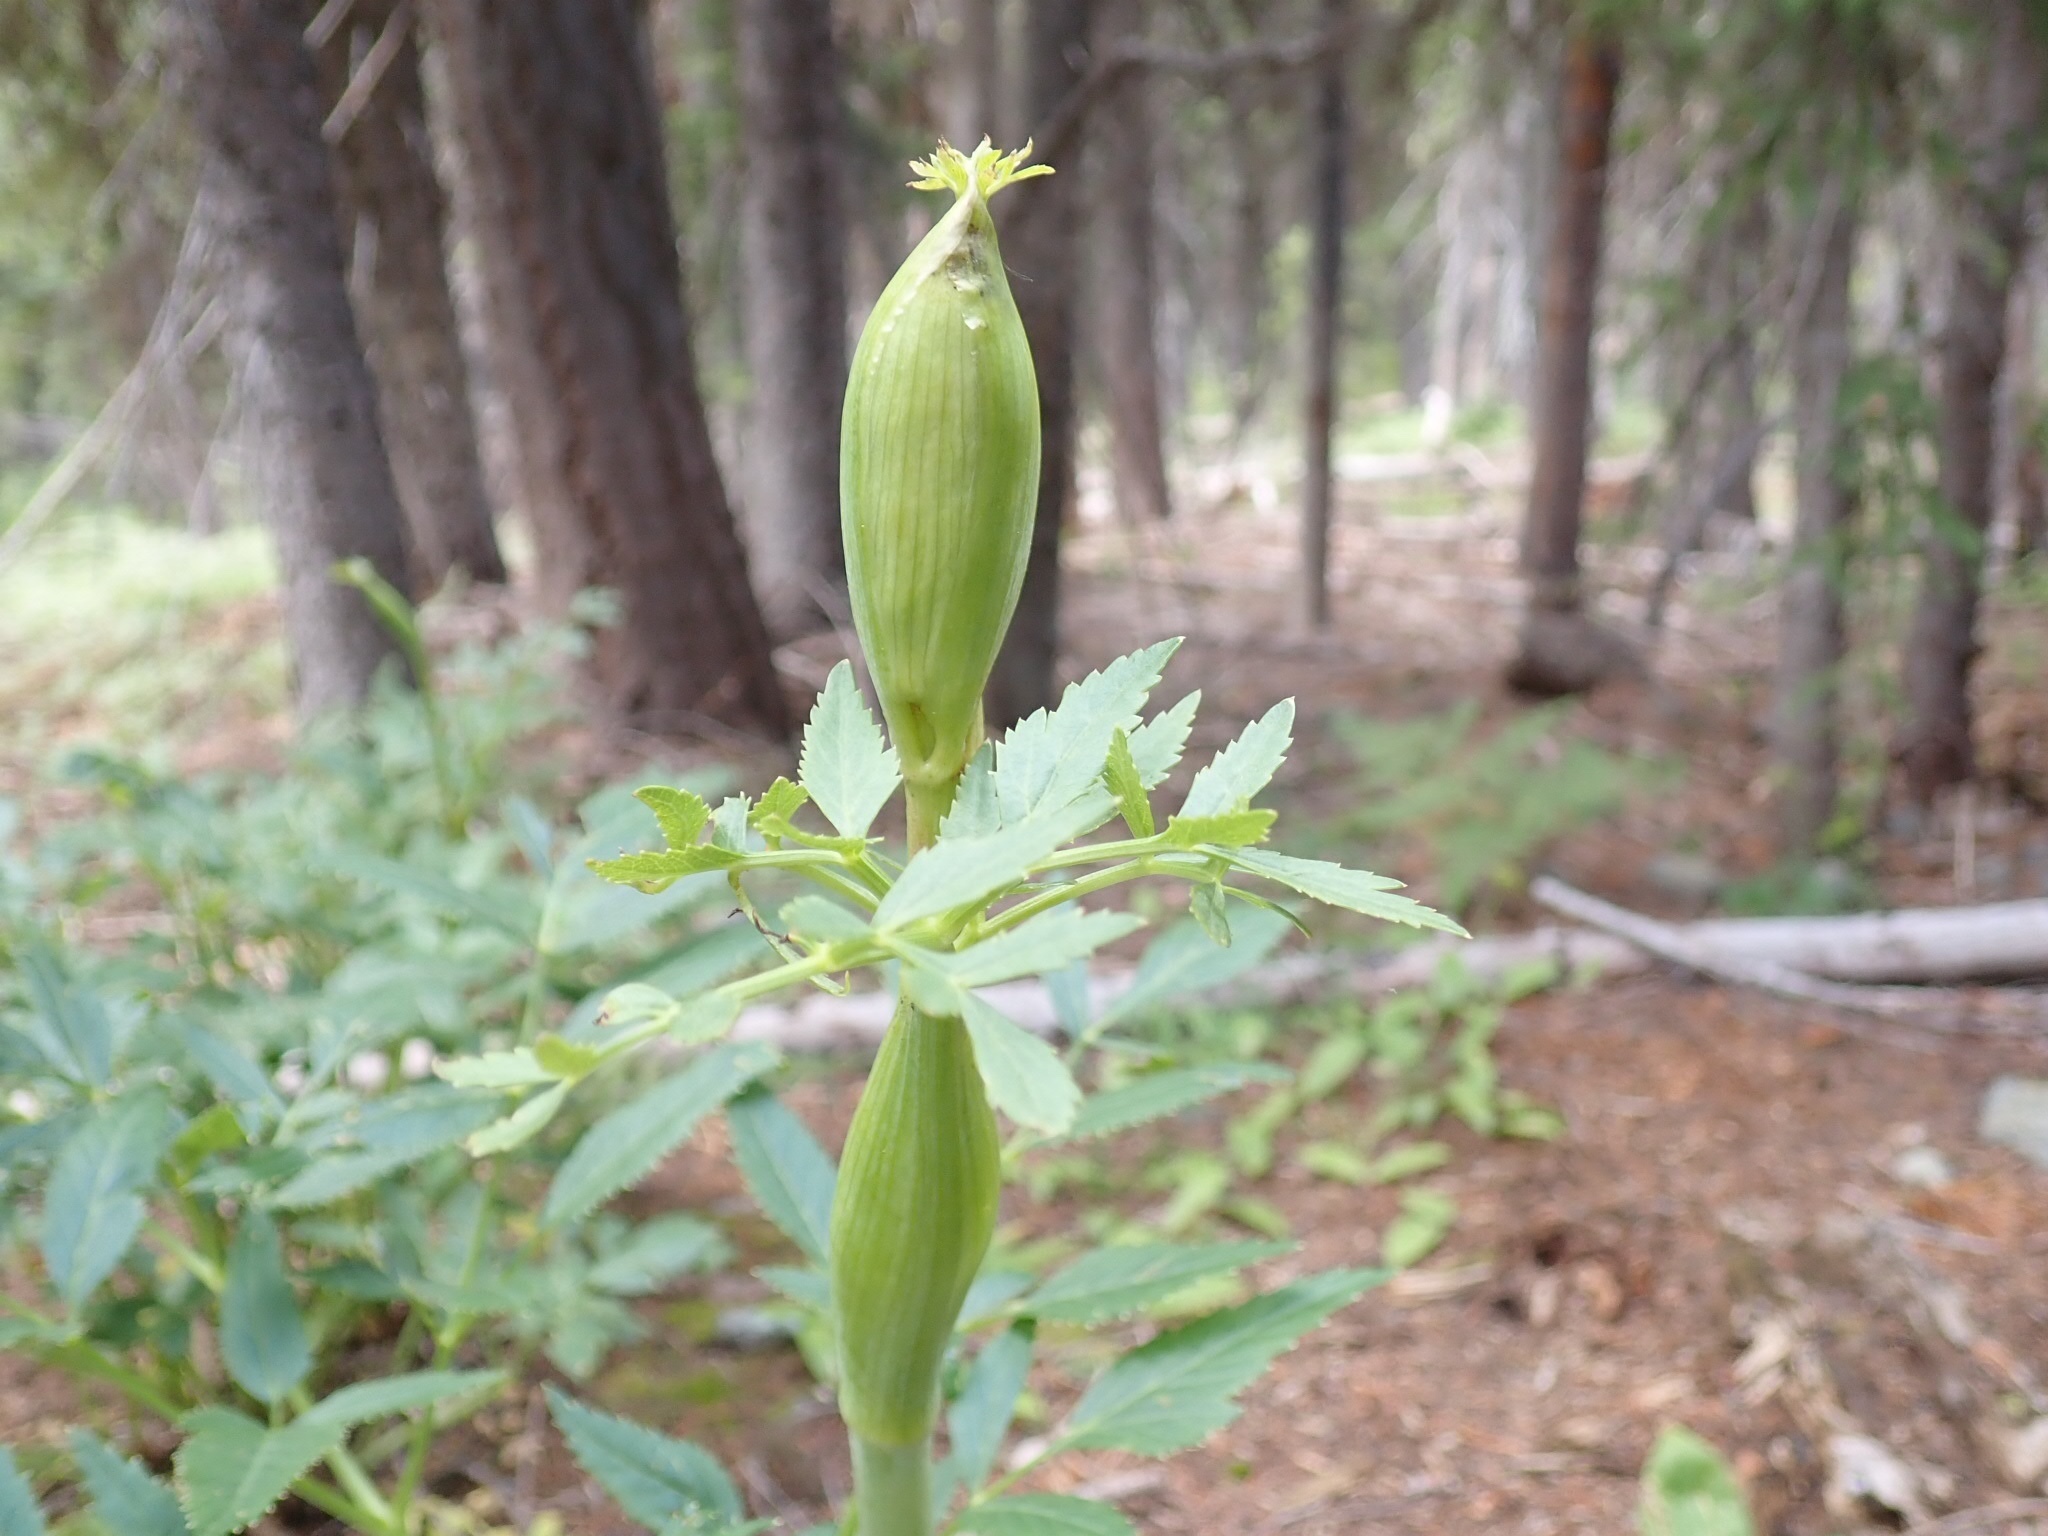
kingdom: Plantae
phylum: Tracheophyta
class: Magnoliopsida
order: Apiales
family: Apiaceae
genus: Angelica
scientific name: Angelica arguta
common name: Lyall's angelica
